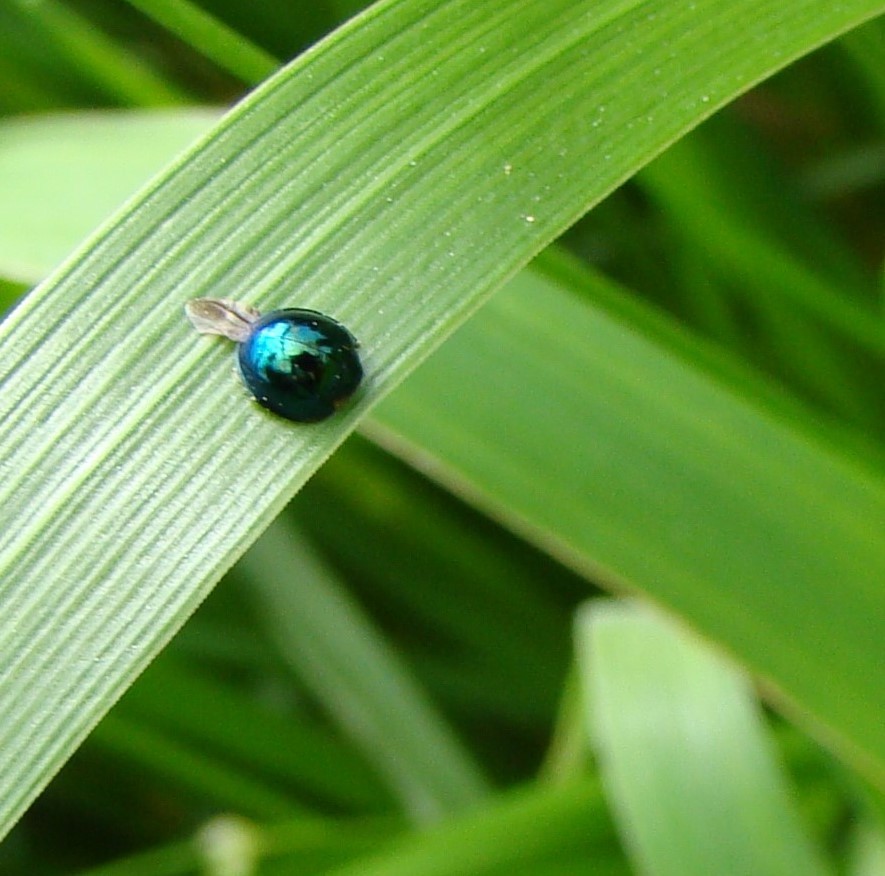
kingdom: Animalia
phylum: Arthropoda
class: Insecta
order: Coleoptera
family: Coccinellidae
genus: Halmus
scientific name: Halmus chalybeus
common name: Steel blue ladybird beetle
